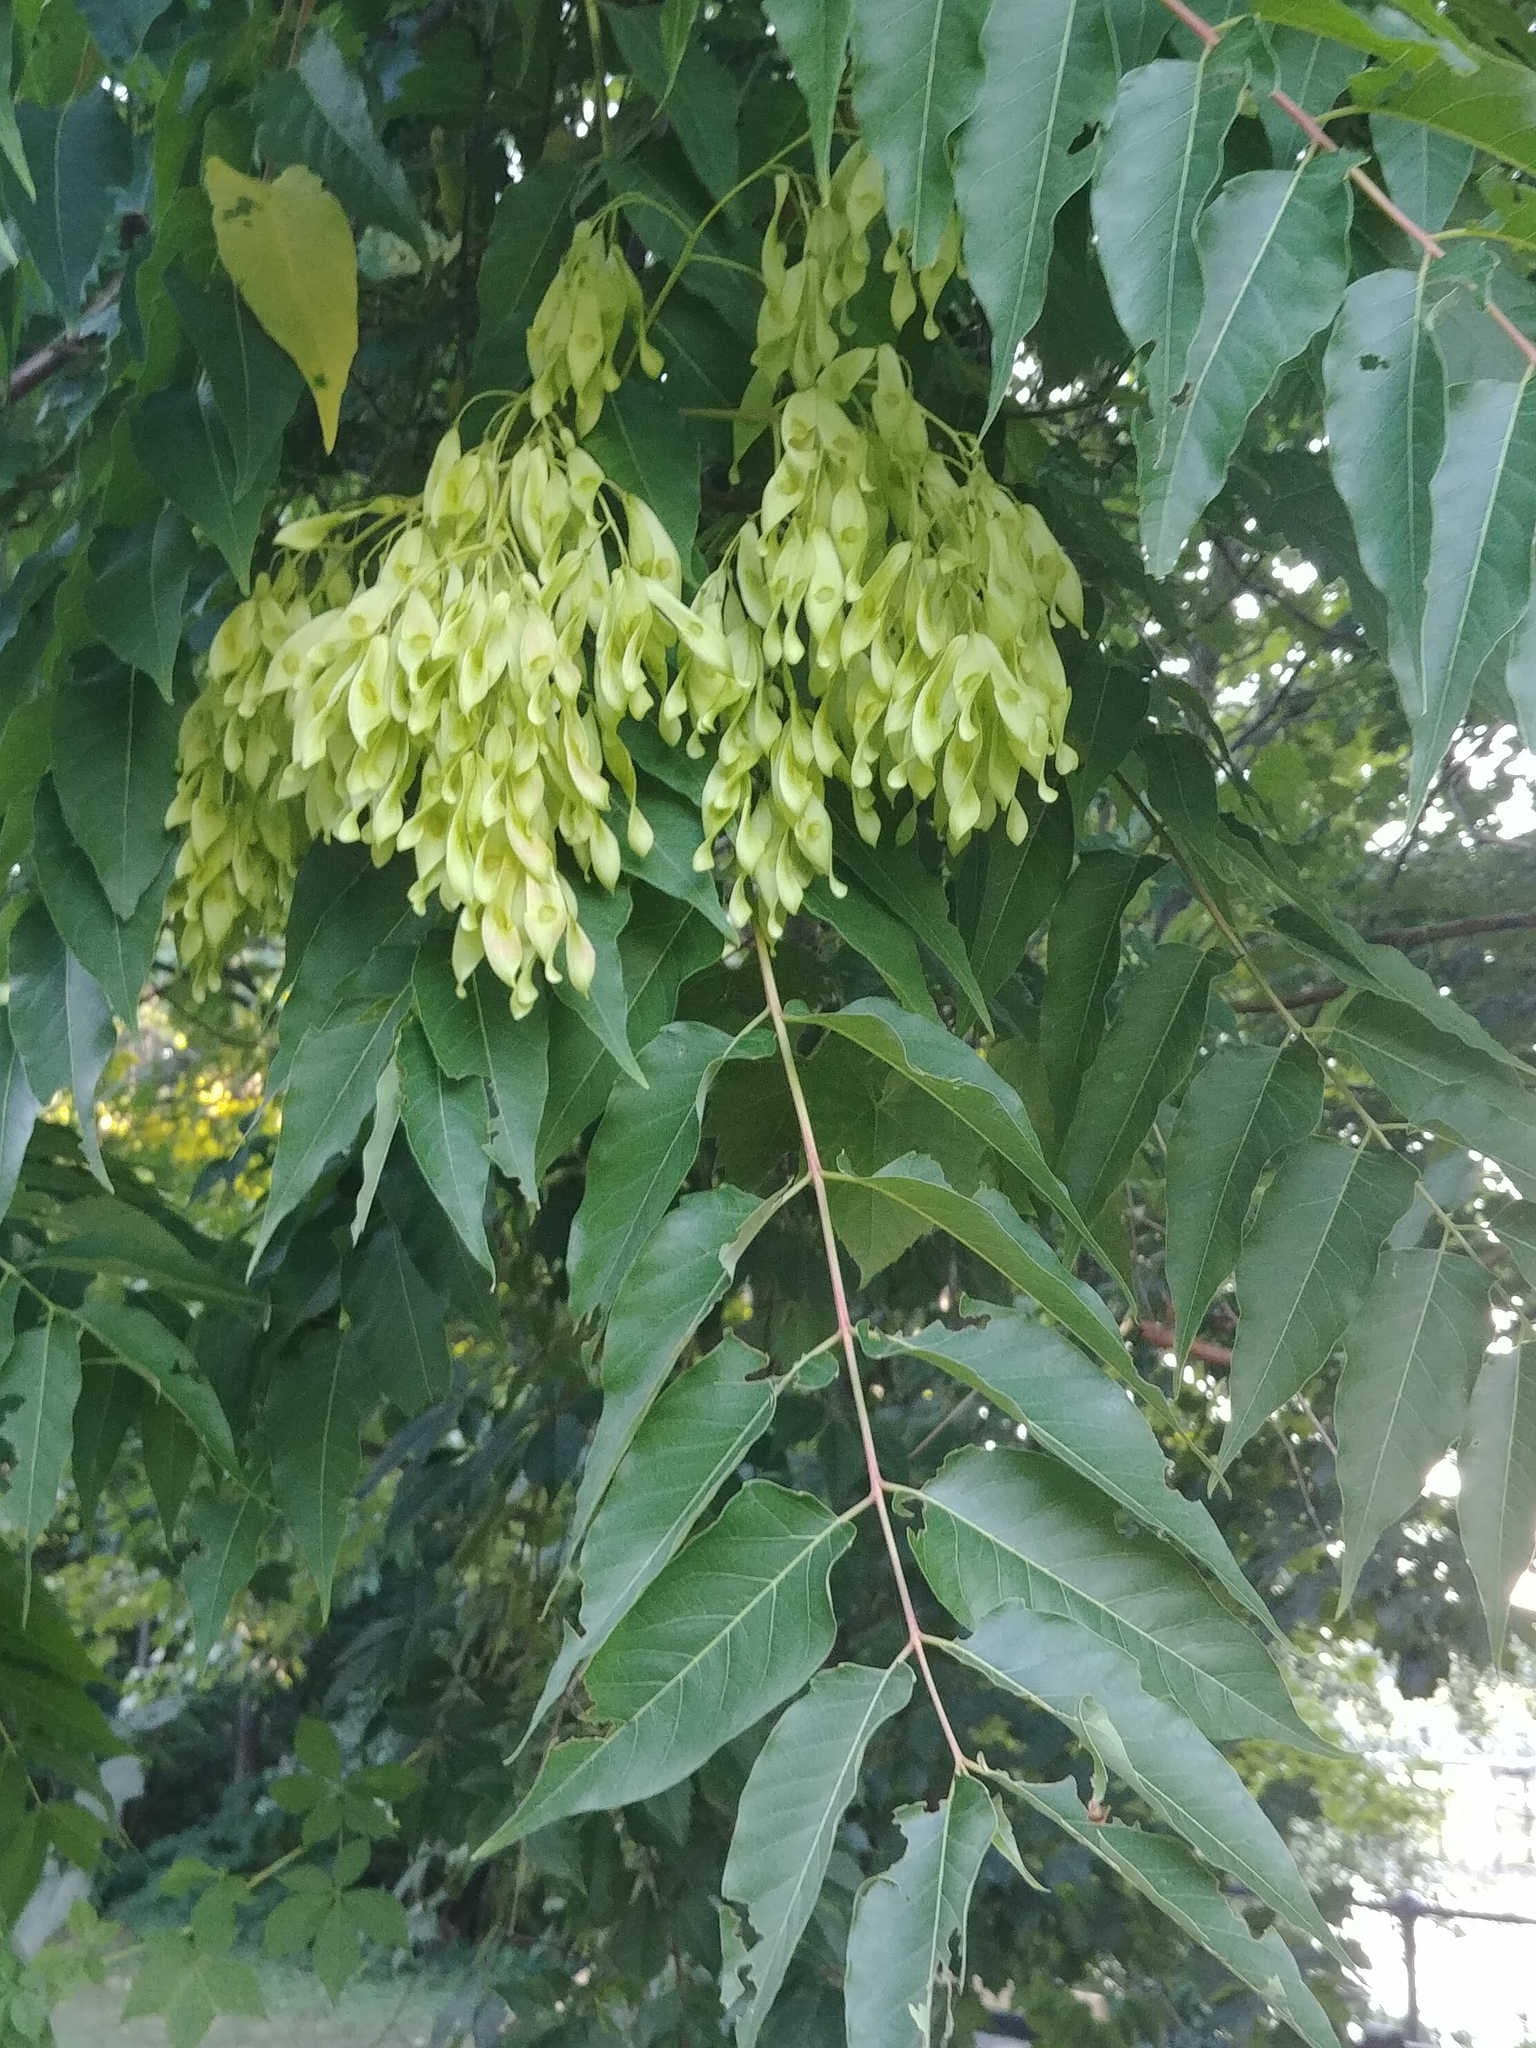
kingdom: Plantae
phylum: Tracheophyta
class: Magnoliopsida
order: Sapindales
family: Simaroubaceae
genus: Ailanthus
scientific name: Ailanthus altissima
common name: Tree-of-heaven
